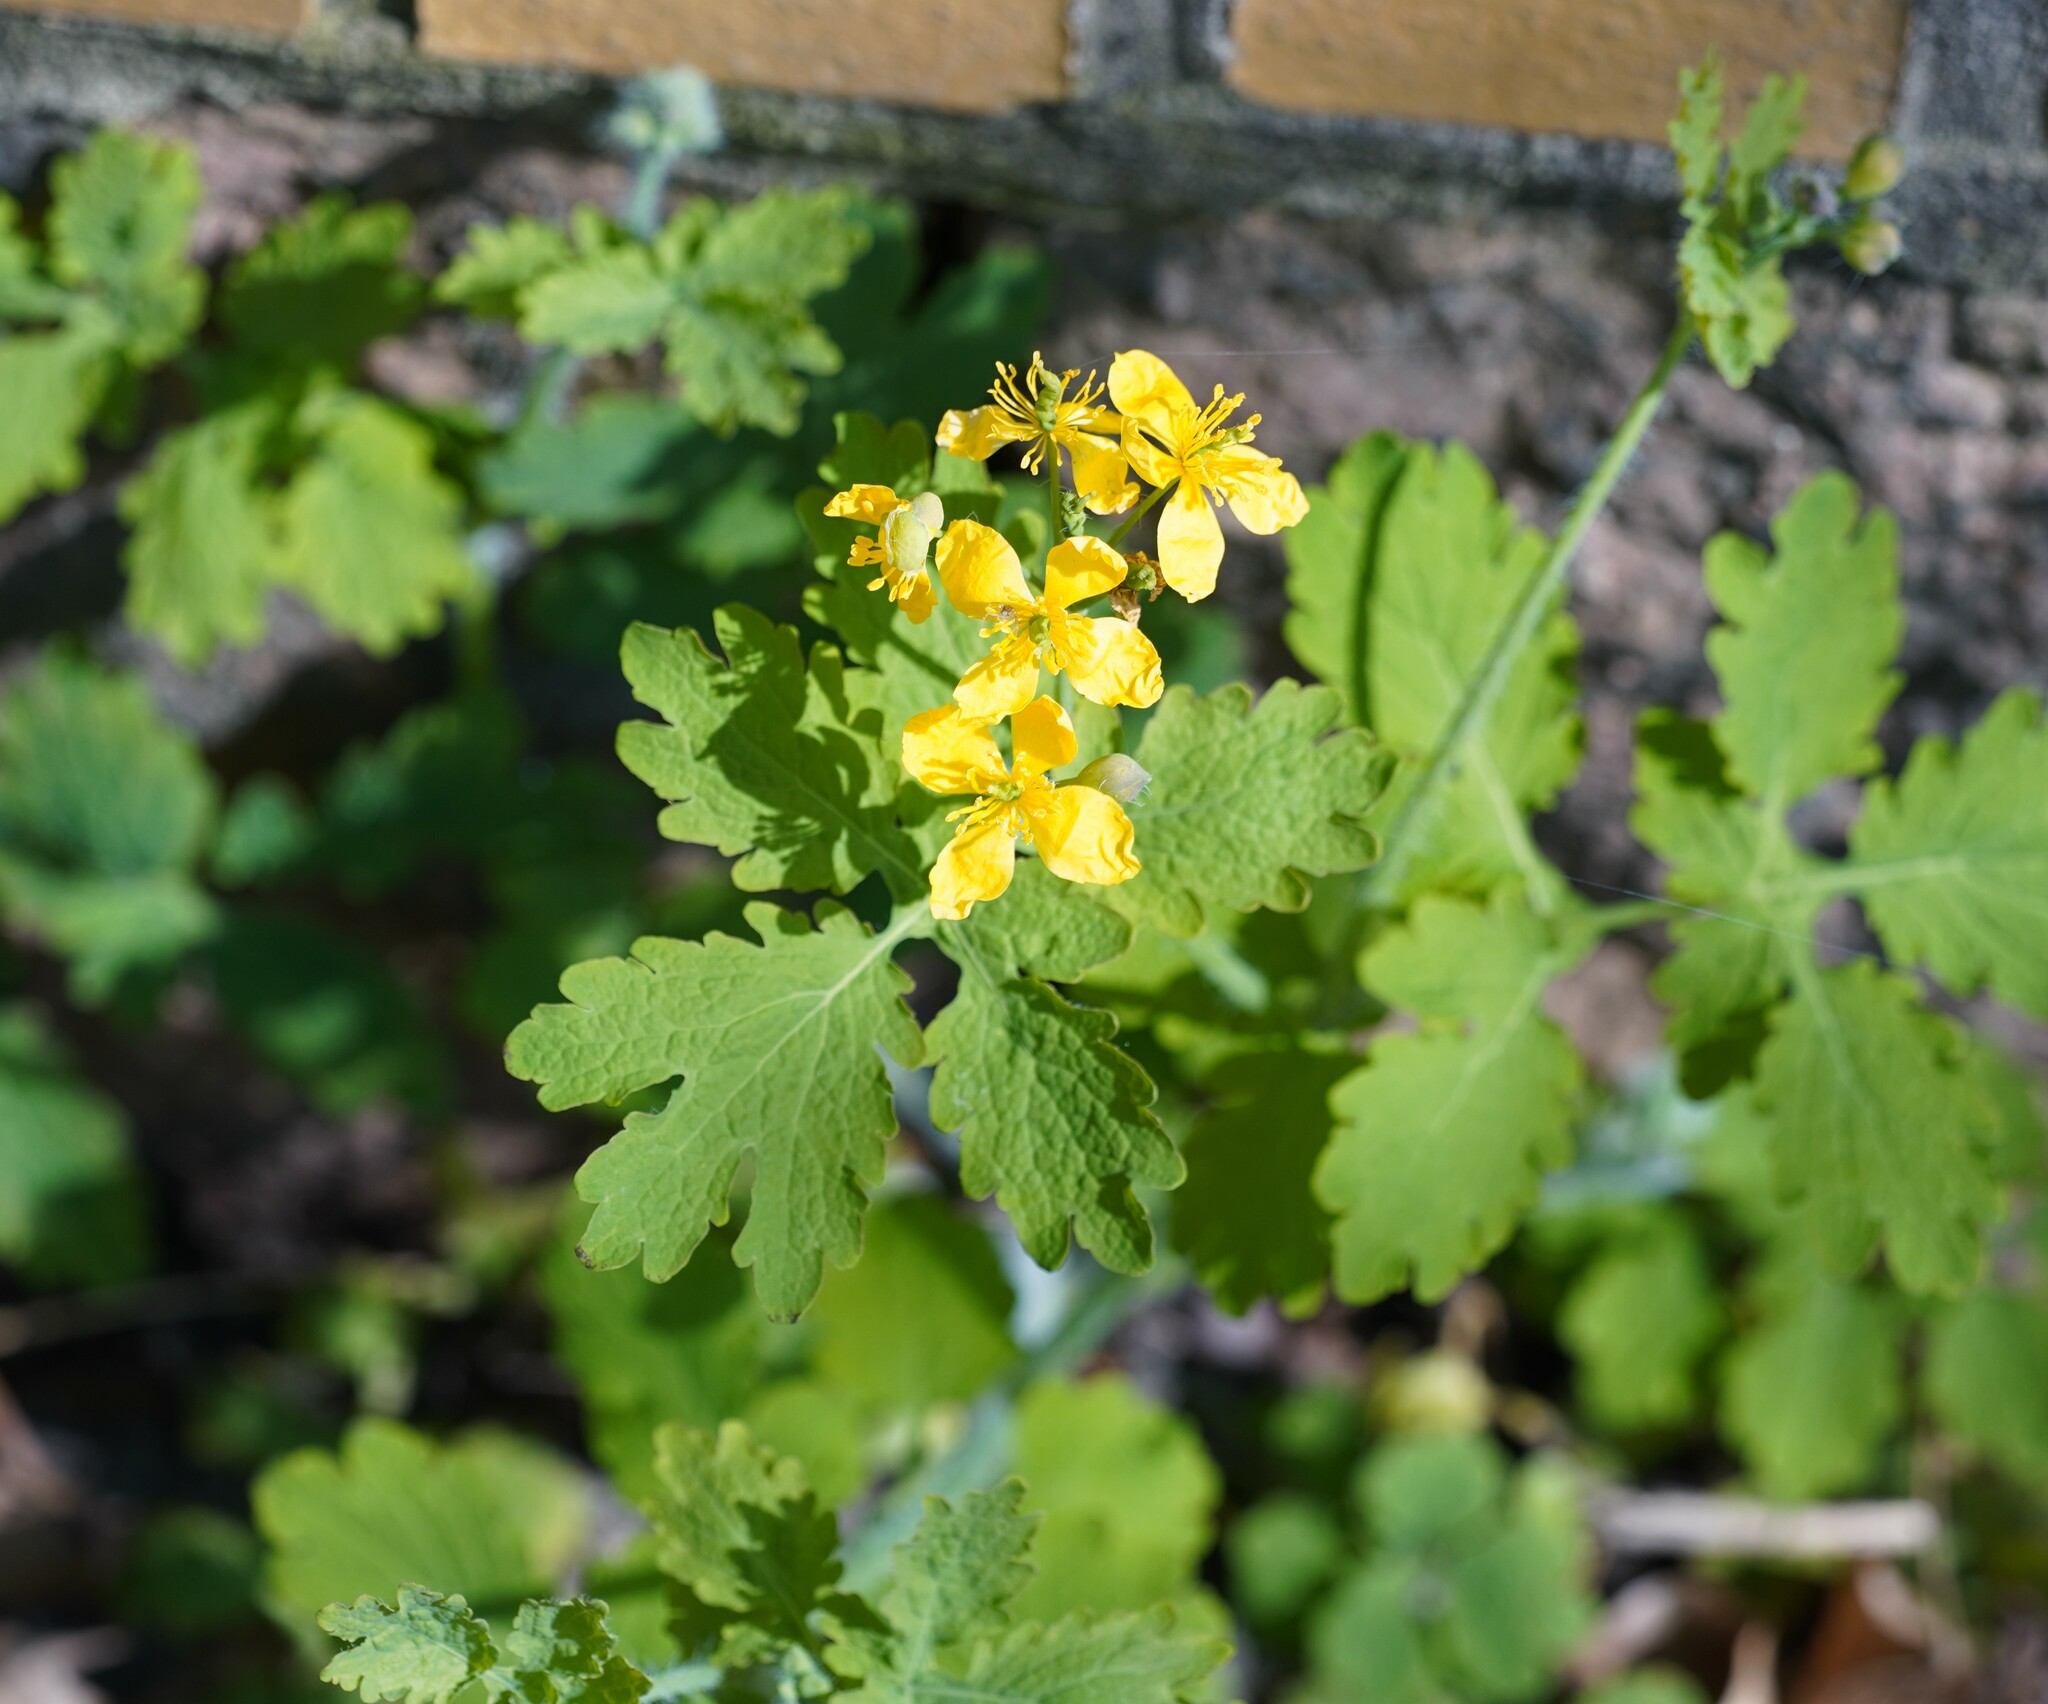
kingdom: Plantae
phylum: Tracheophyta
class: Magnoliopsida
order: Ranunculales
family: Papaveraceae
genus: Chelidonium
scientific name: Chelidonium majus
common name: Greater celandine
